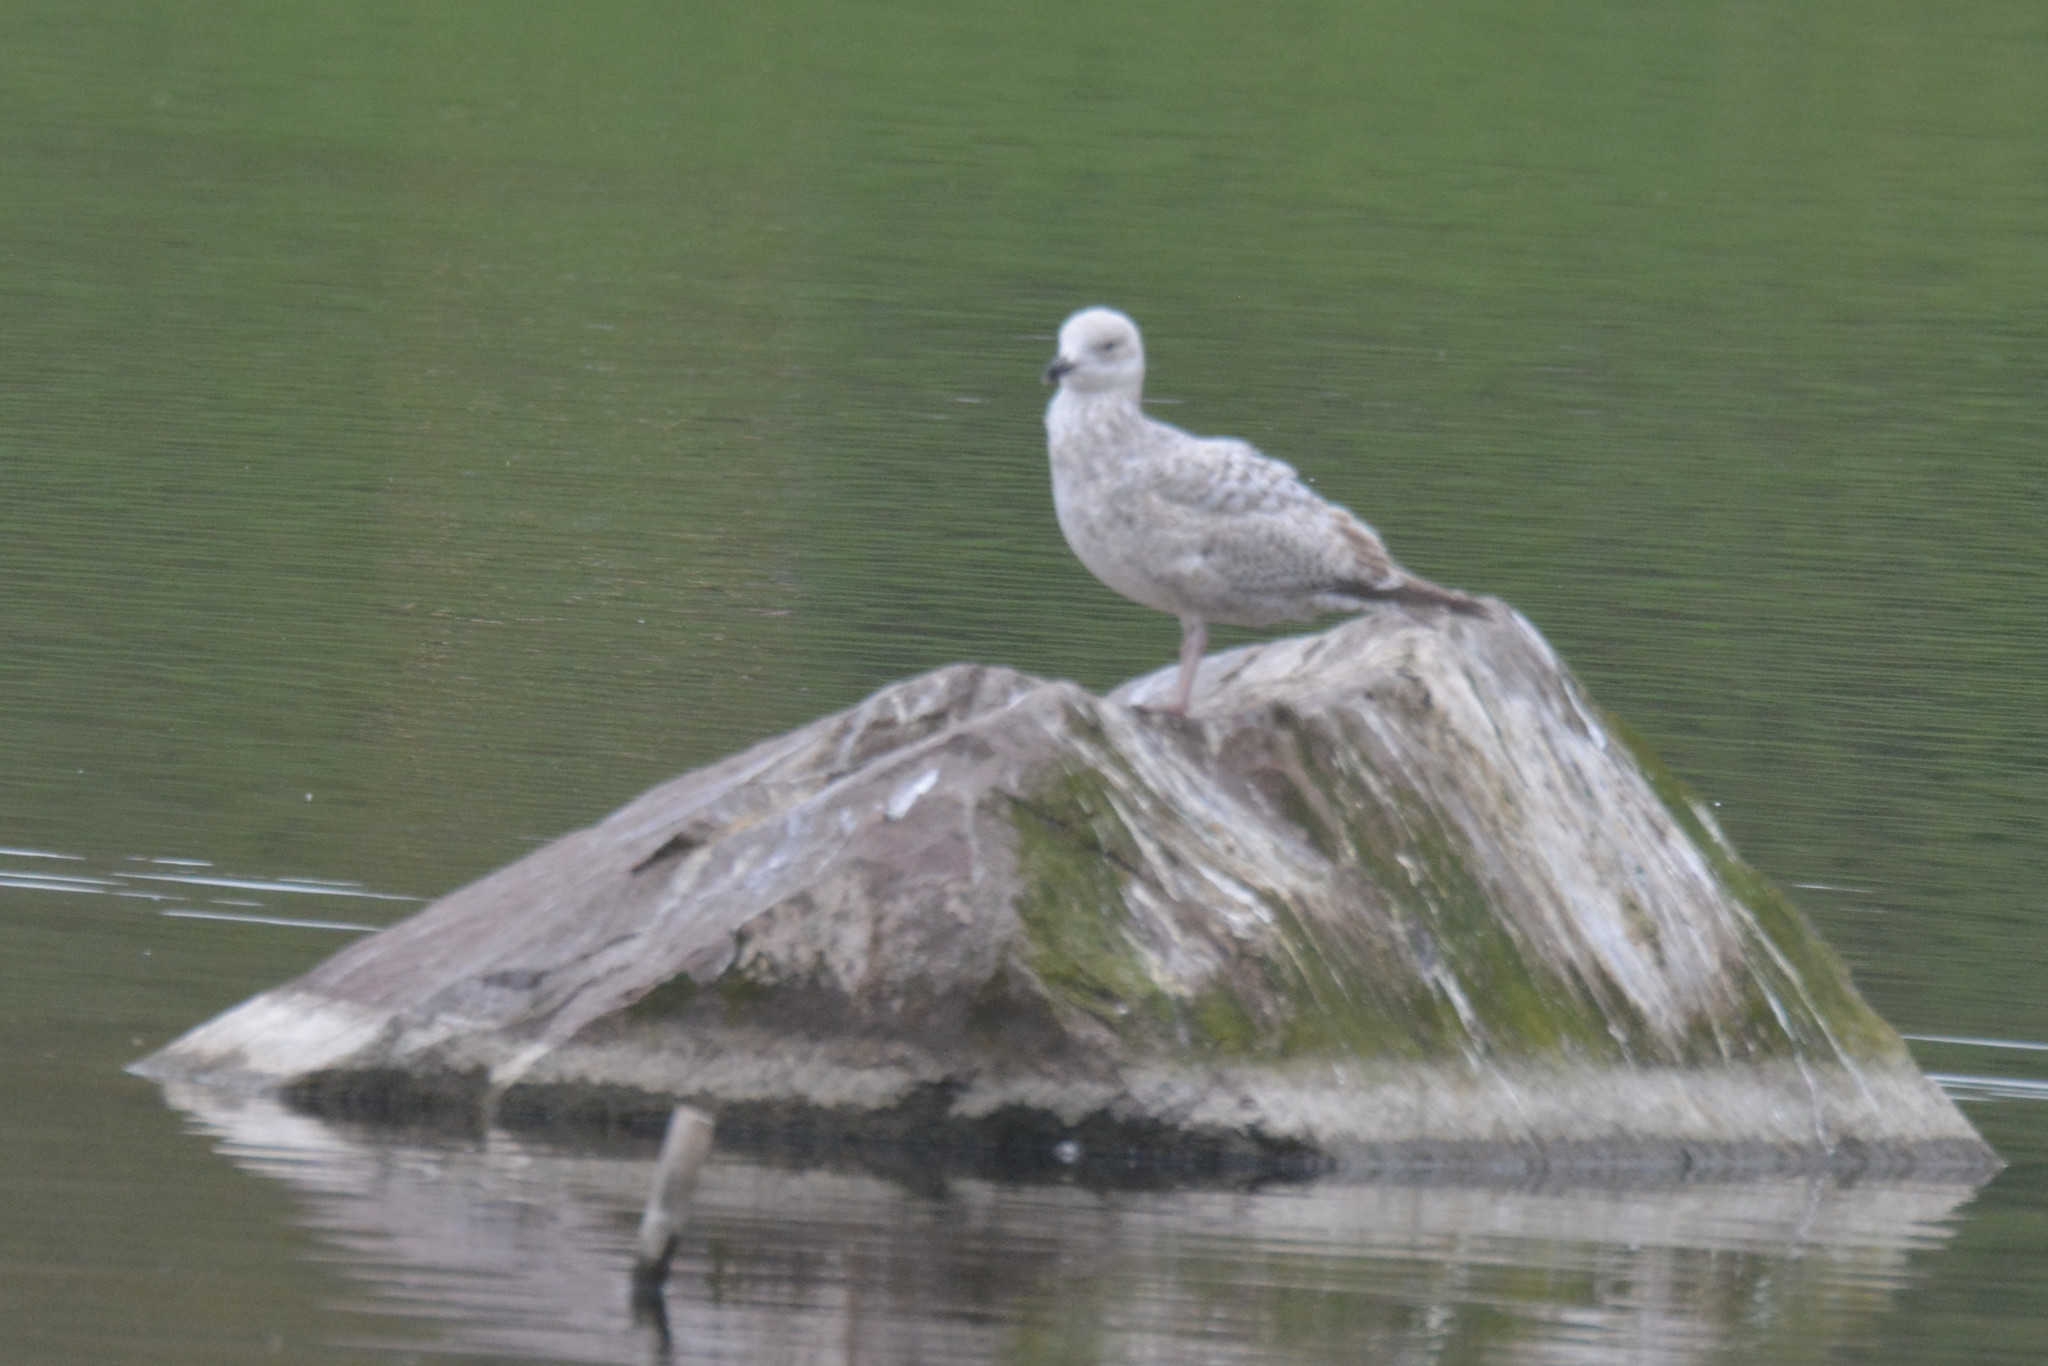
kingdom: Animalia
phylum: Chordata
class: Aves
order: Charadriiformes
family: Laridae
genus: Larus
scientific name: Larus argentatus
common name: Herring gull
